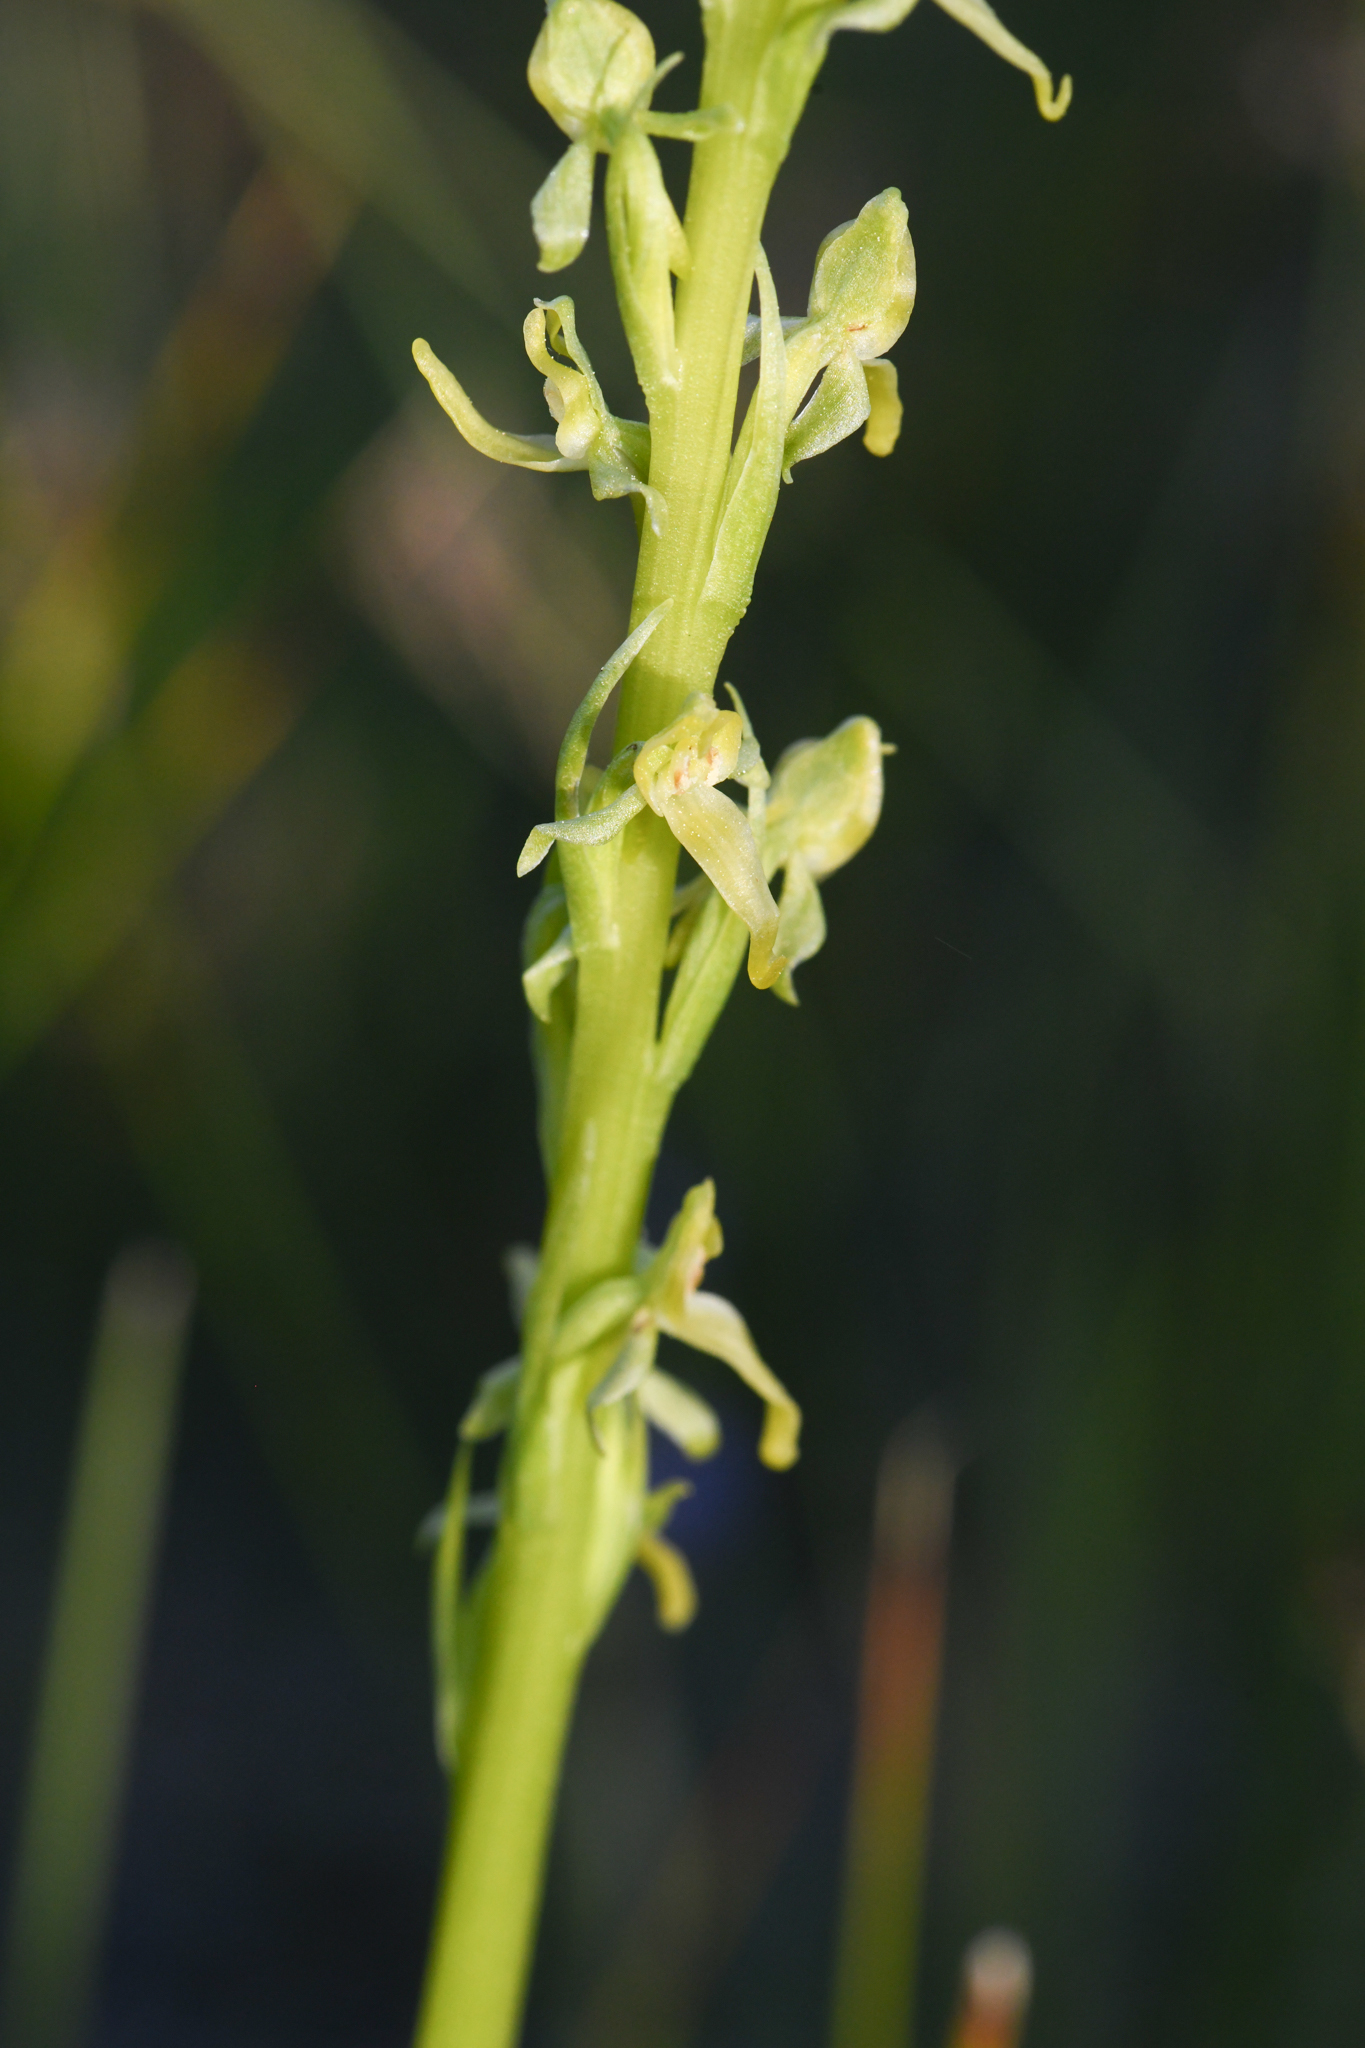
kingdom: Plantae
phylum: Tracheophyta
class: Liliopsida
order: Asparagales
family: Orchidaceae
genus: Platanthera
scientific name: Platanthera tescamnis
